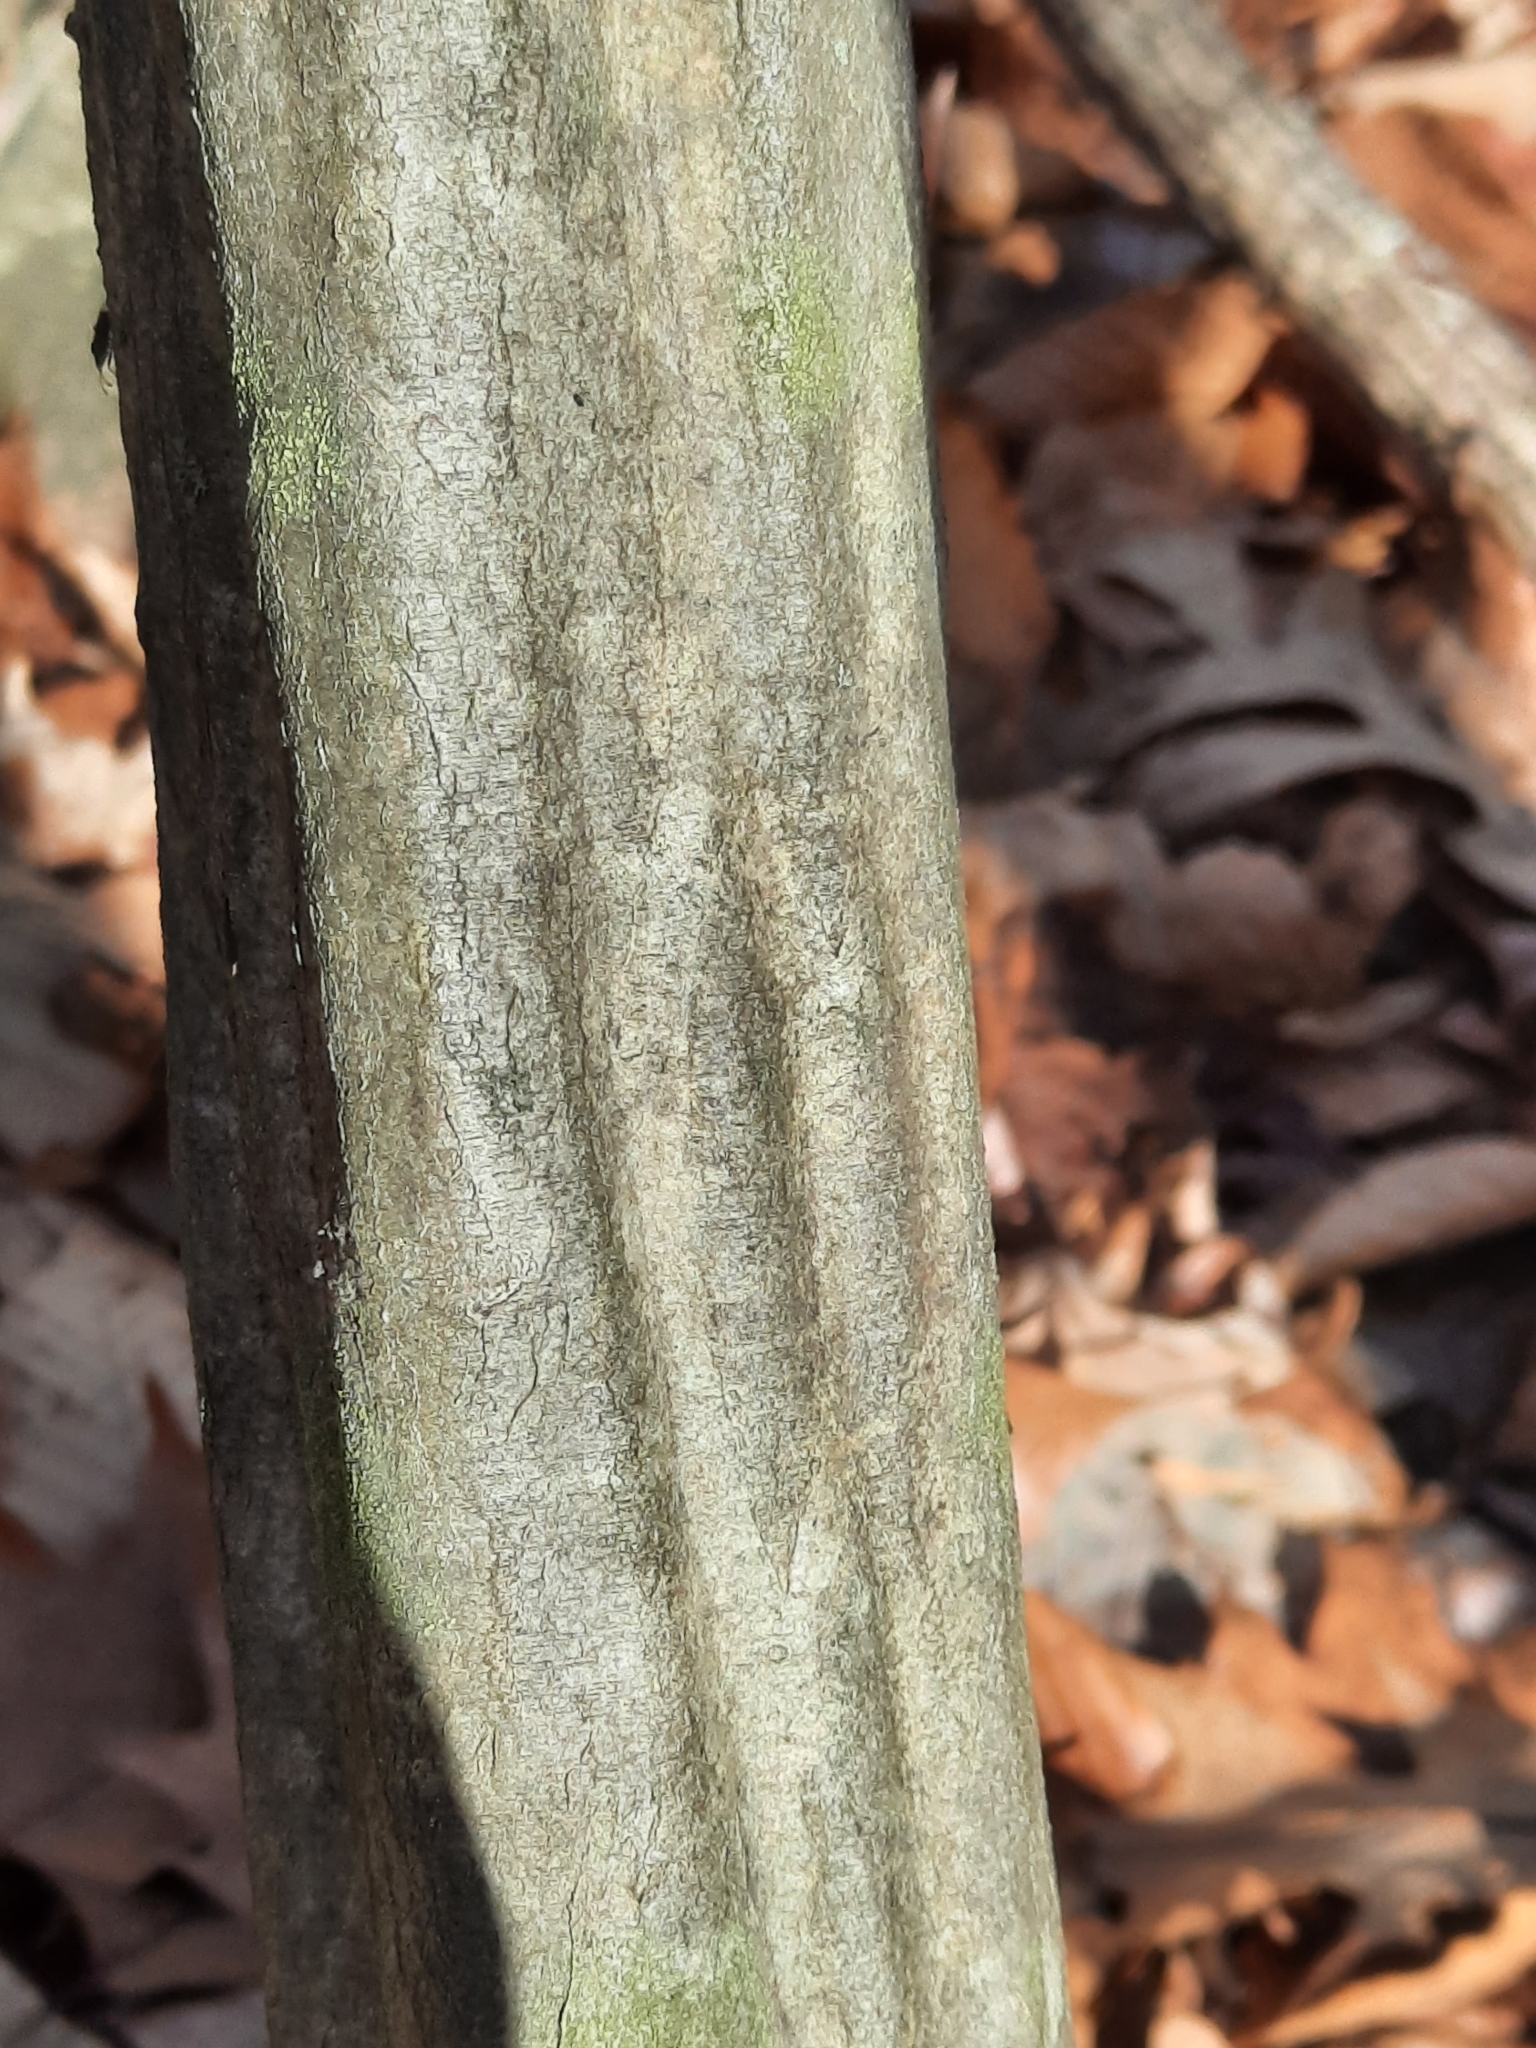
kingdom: Plantae
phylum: Tracheophyta
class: Magnoliopsida
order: Fagales
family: Betulaceae
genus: Carpinus
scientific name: Carpinus caroliniana
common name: American hornbeam
